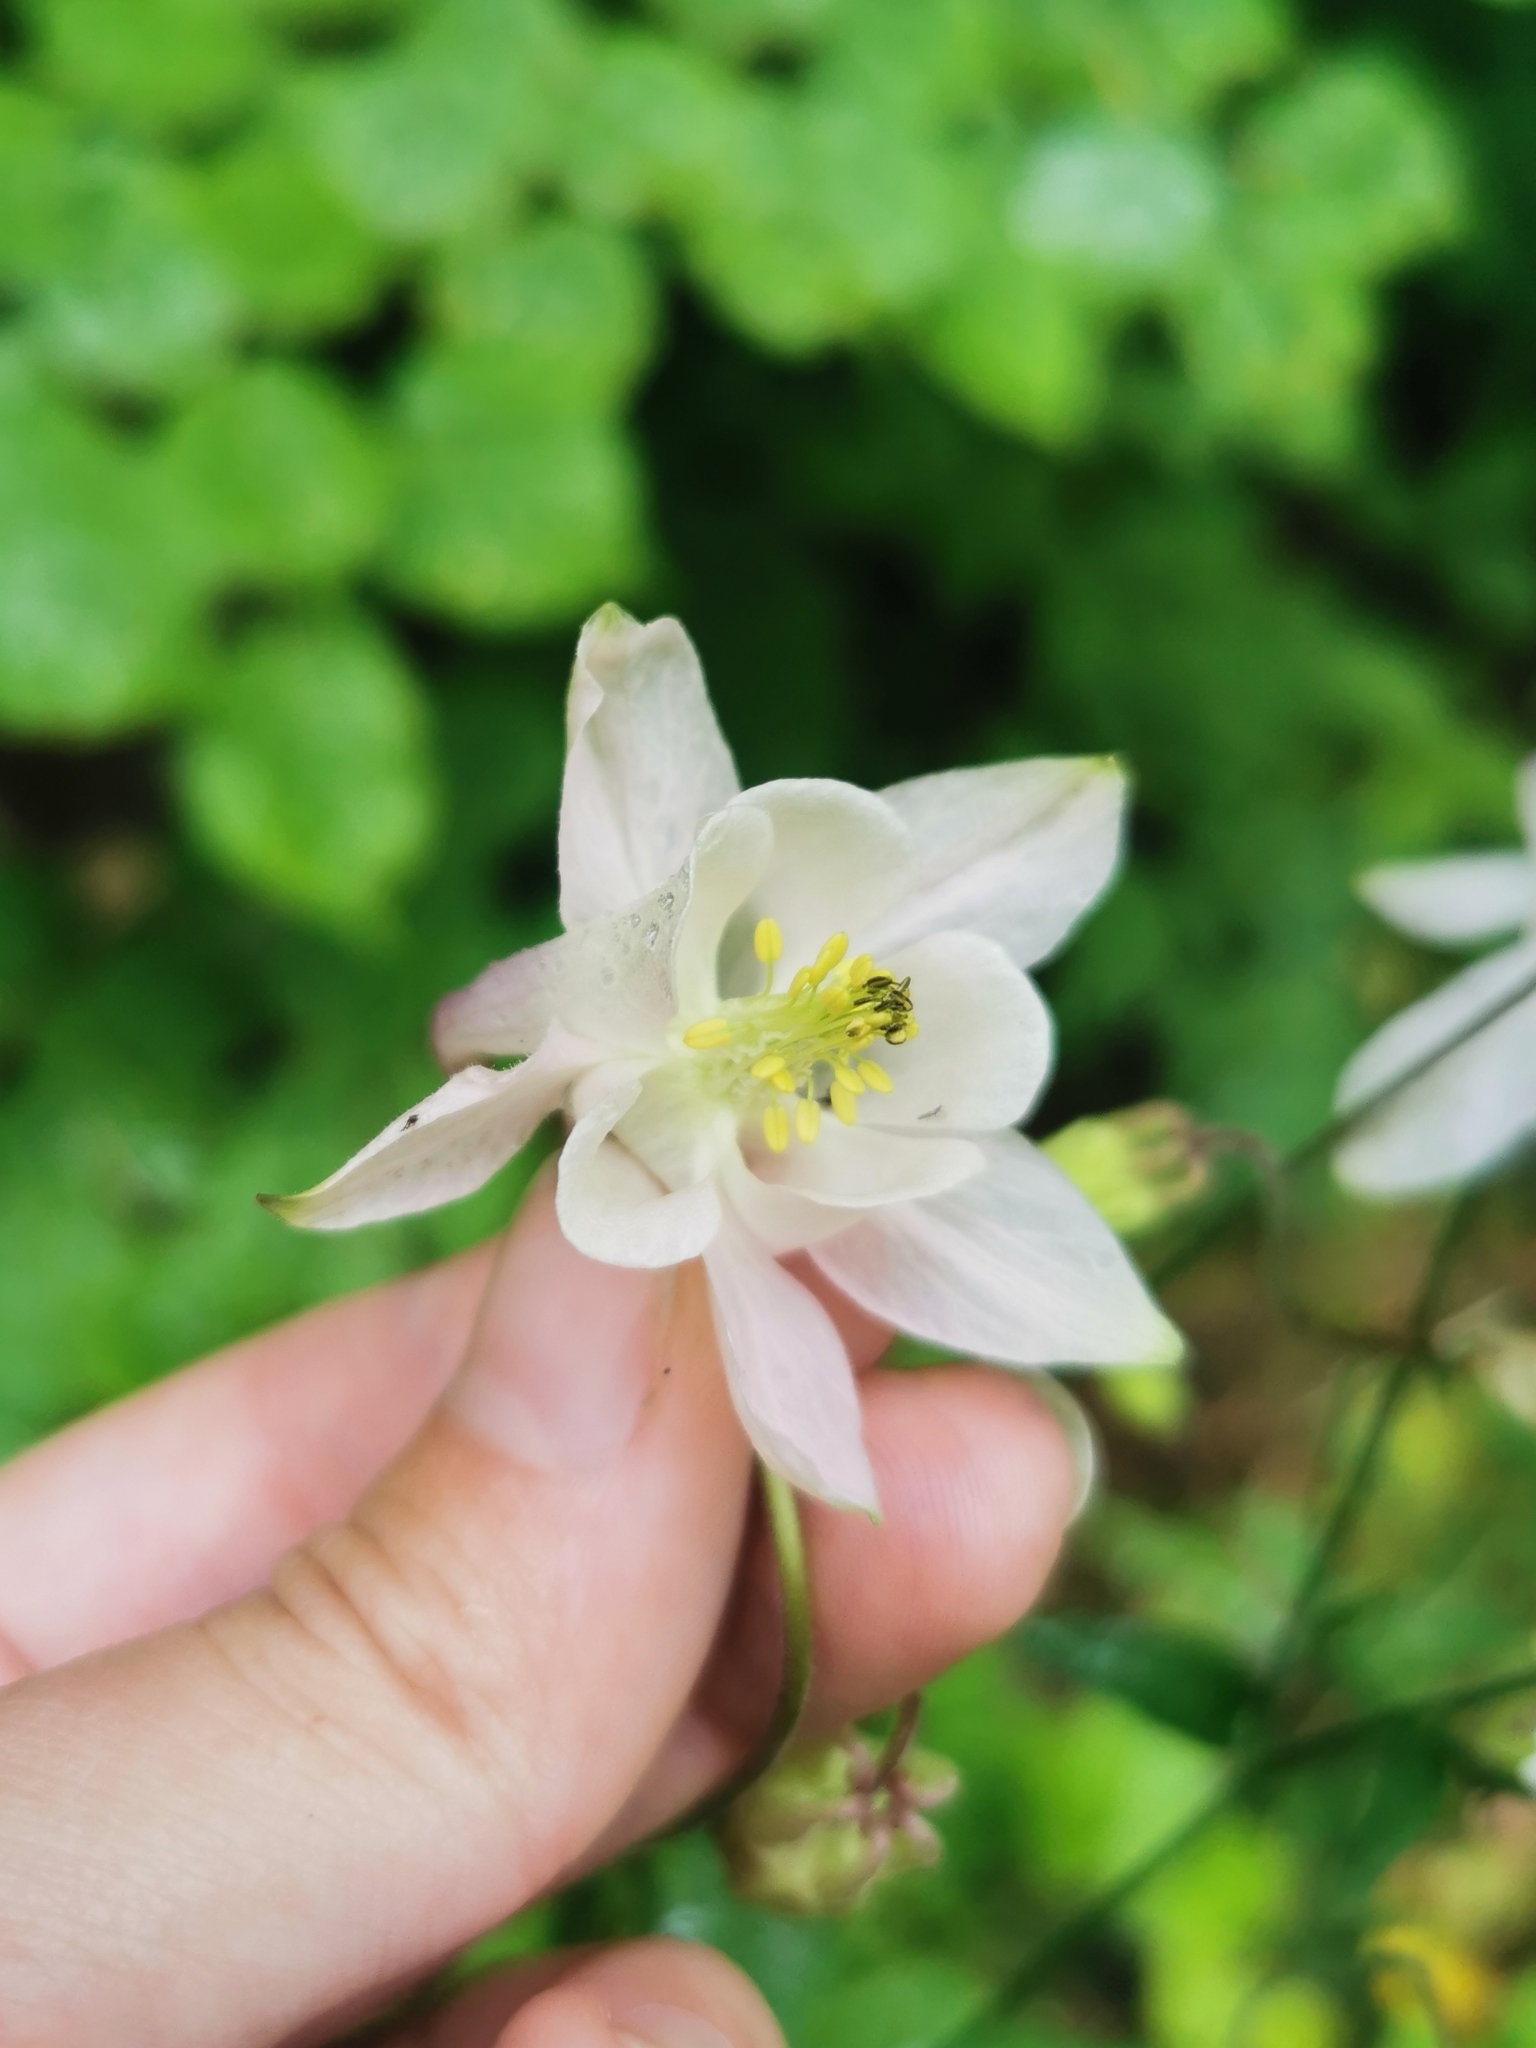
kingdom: Plantae
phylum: Tracheophyta
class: Magnoliopsida
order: Ranunculales
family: Ranunculaceae
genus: Aquilegia
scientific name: Aquilegia vulgaris
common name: Columbine
